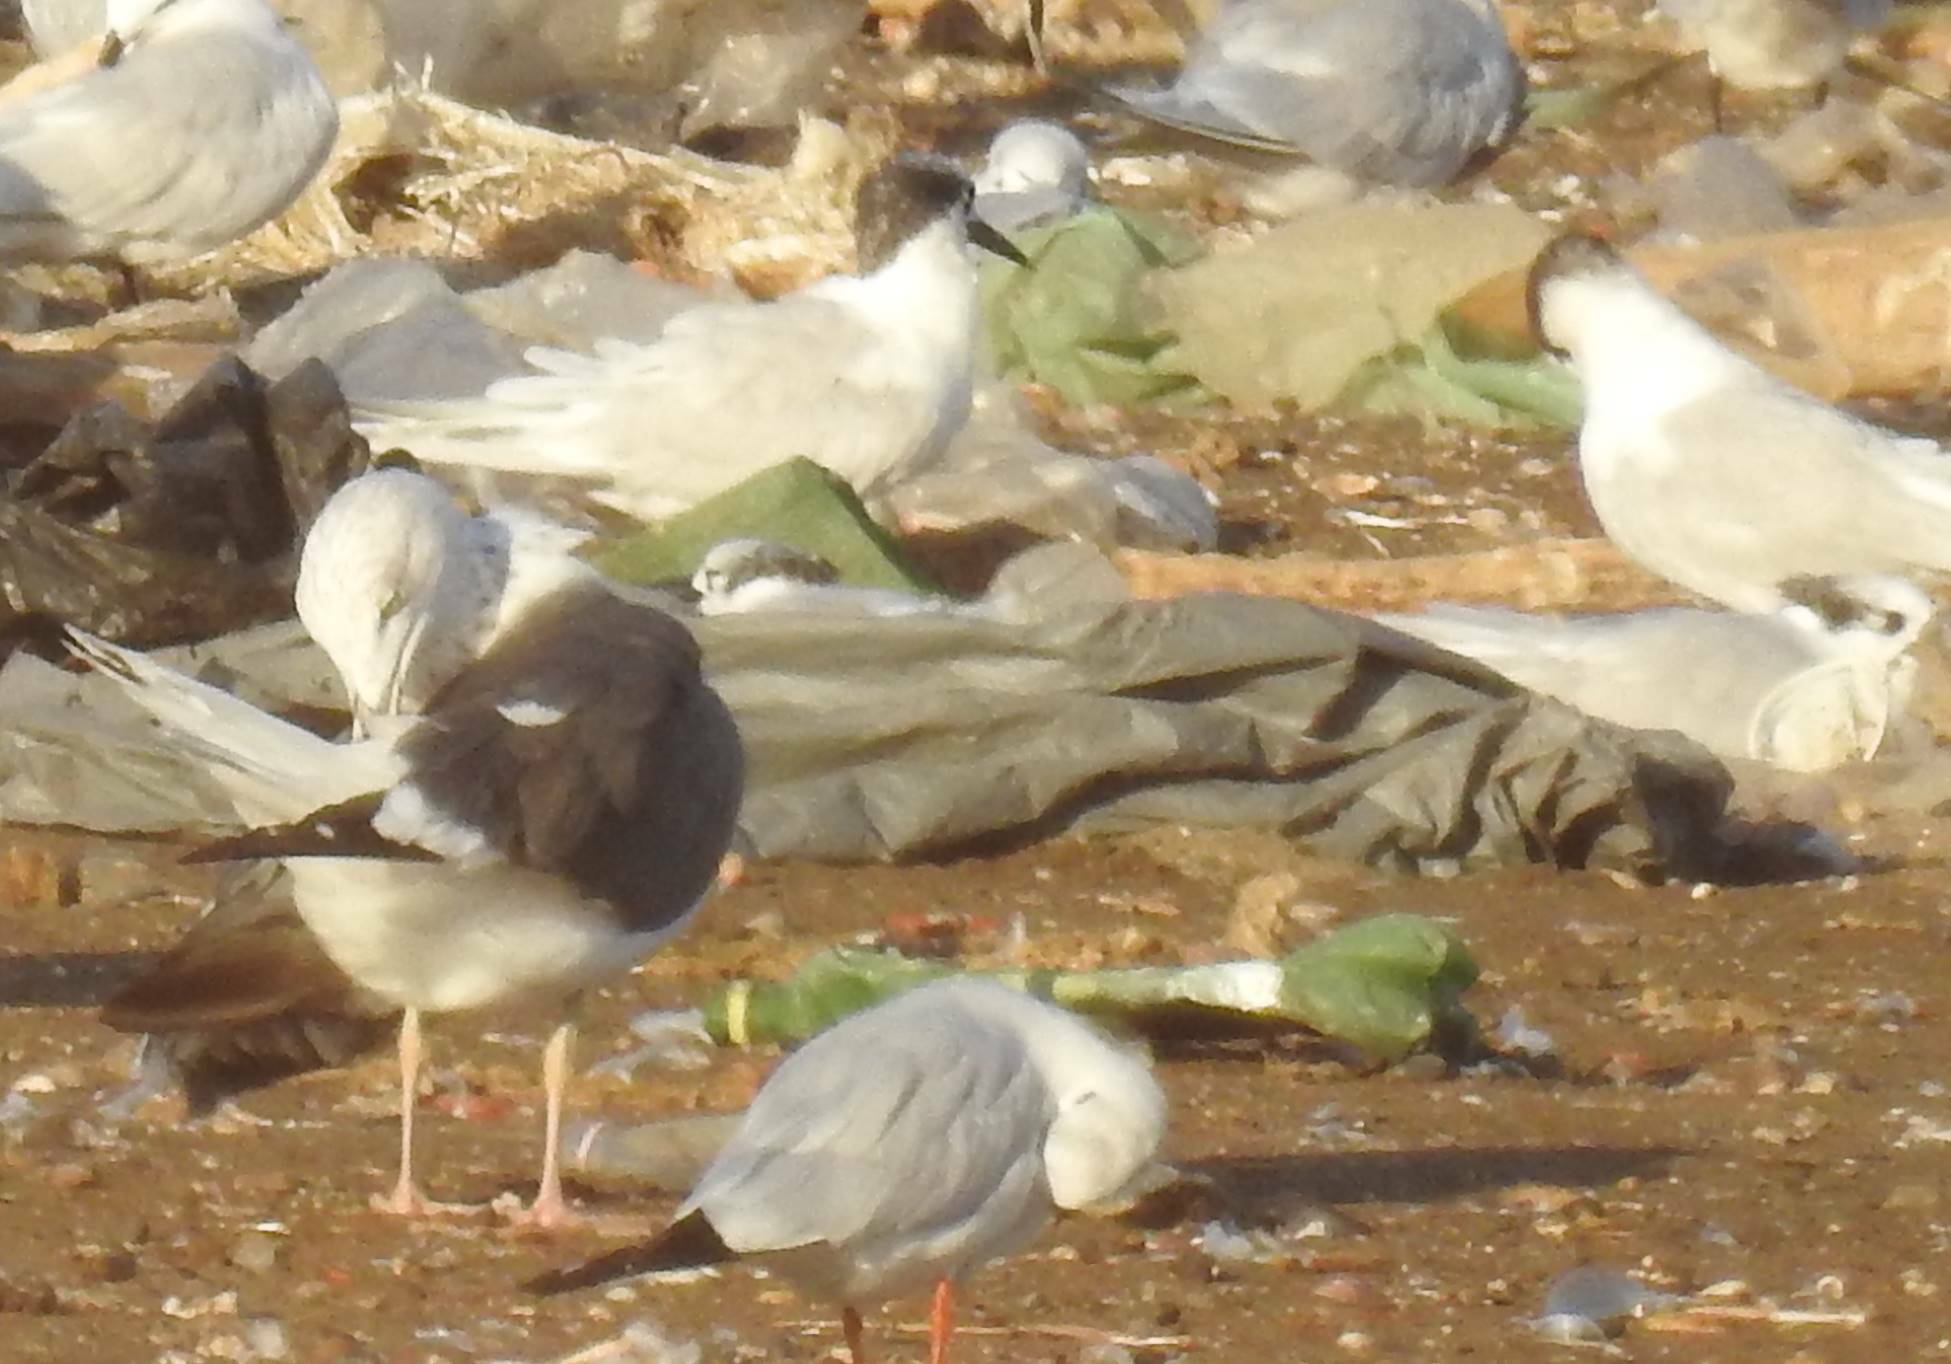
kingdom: Animalia
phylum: Chordata
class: Aves
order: Charadriiformes
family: Laridae
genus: Thalasseus
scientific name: Thalasseus sandvicensis
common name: Sandwich tern
